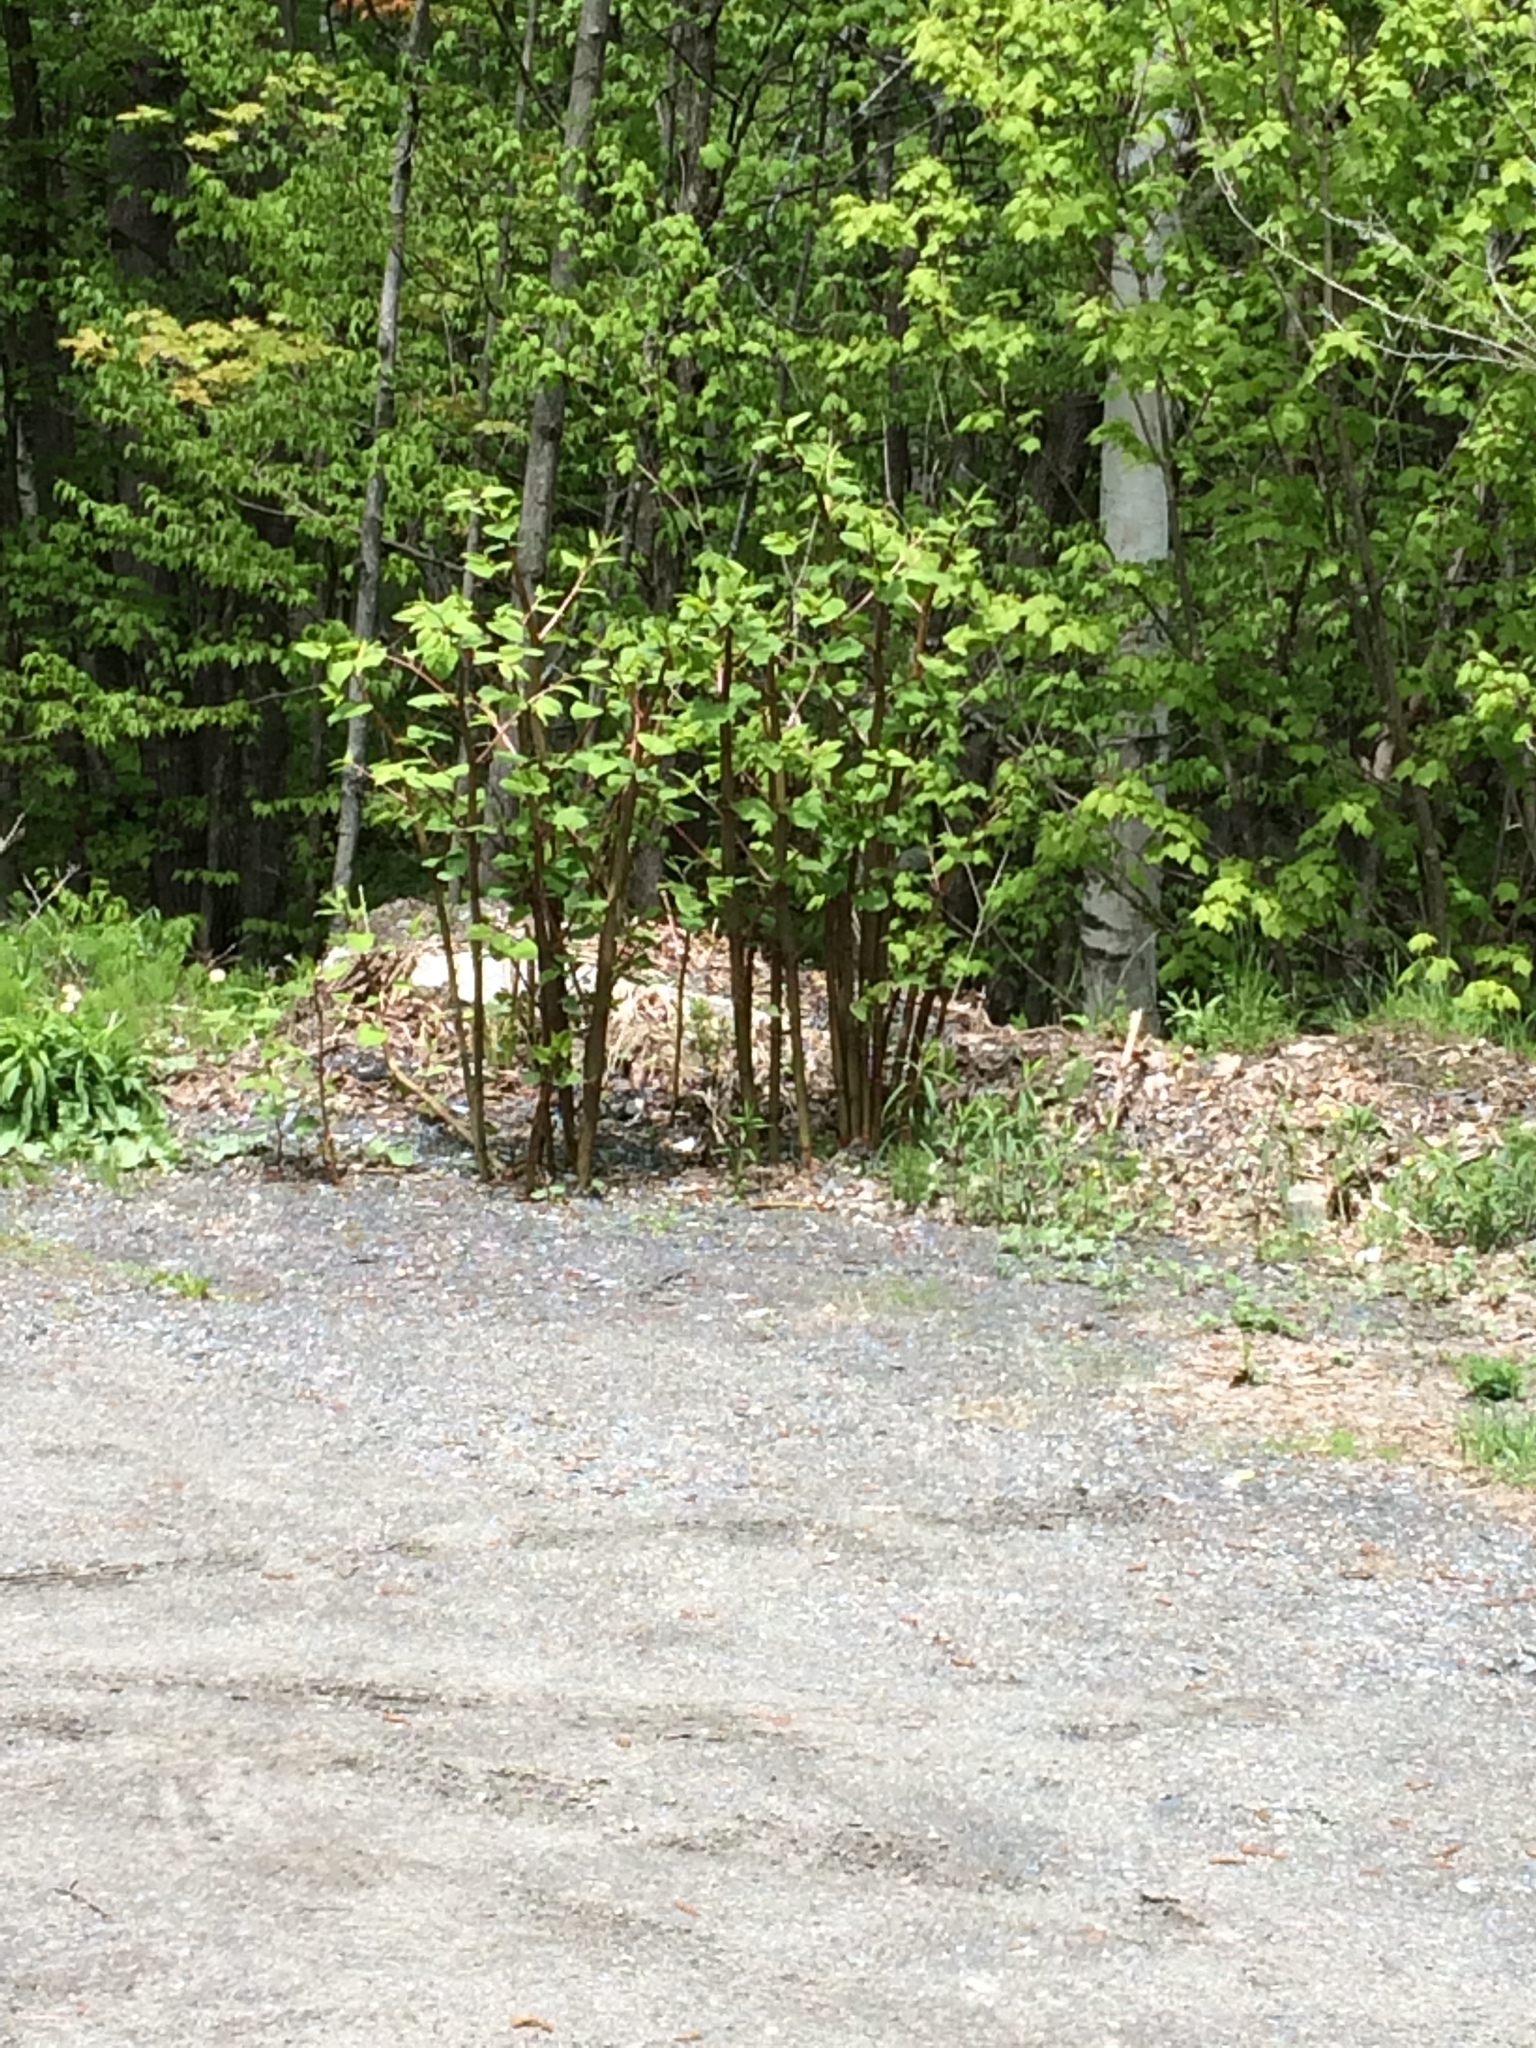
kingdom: Plantae
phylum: Tracheophyta
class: Magnoliopsida
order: Caryophyllales
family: Polygonaceae
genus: Reynoutria
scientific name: Reynoutria japonica
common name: Japanese knotweed
